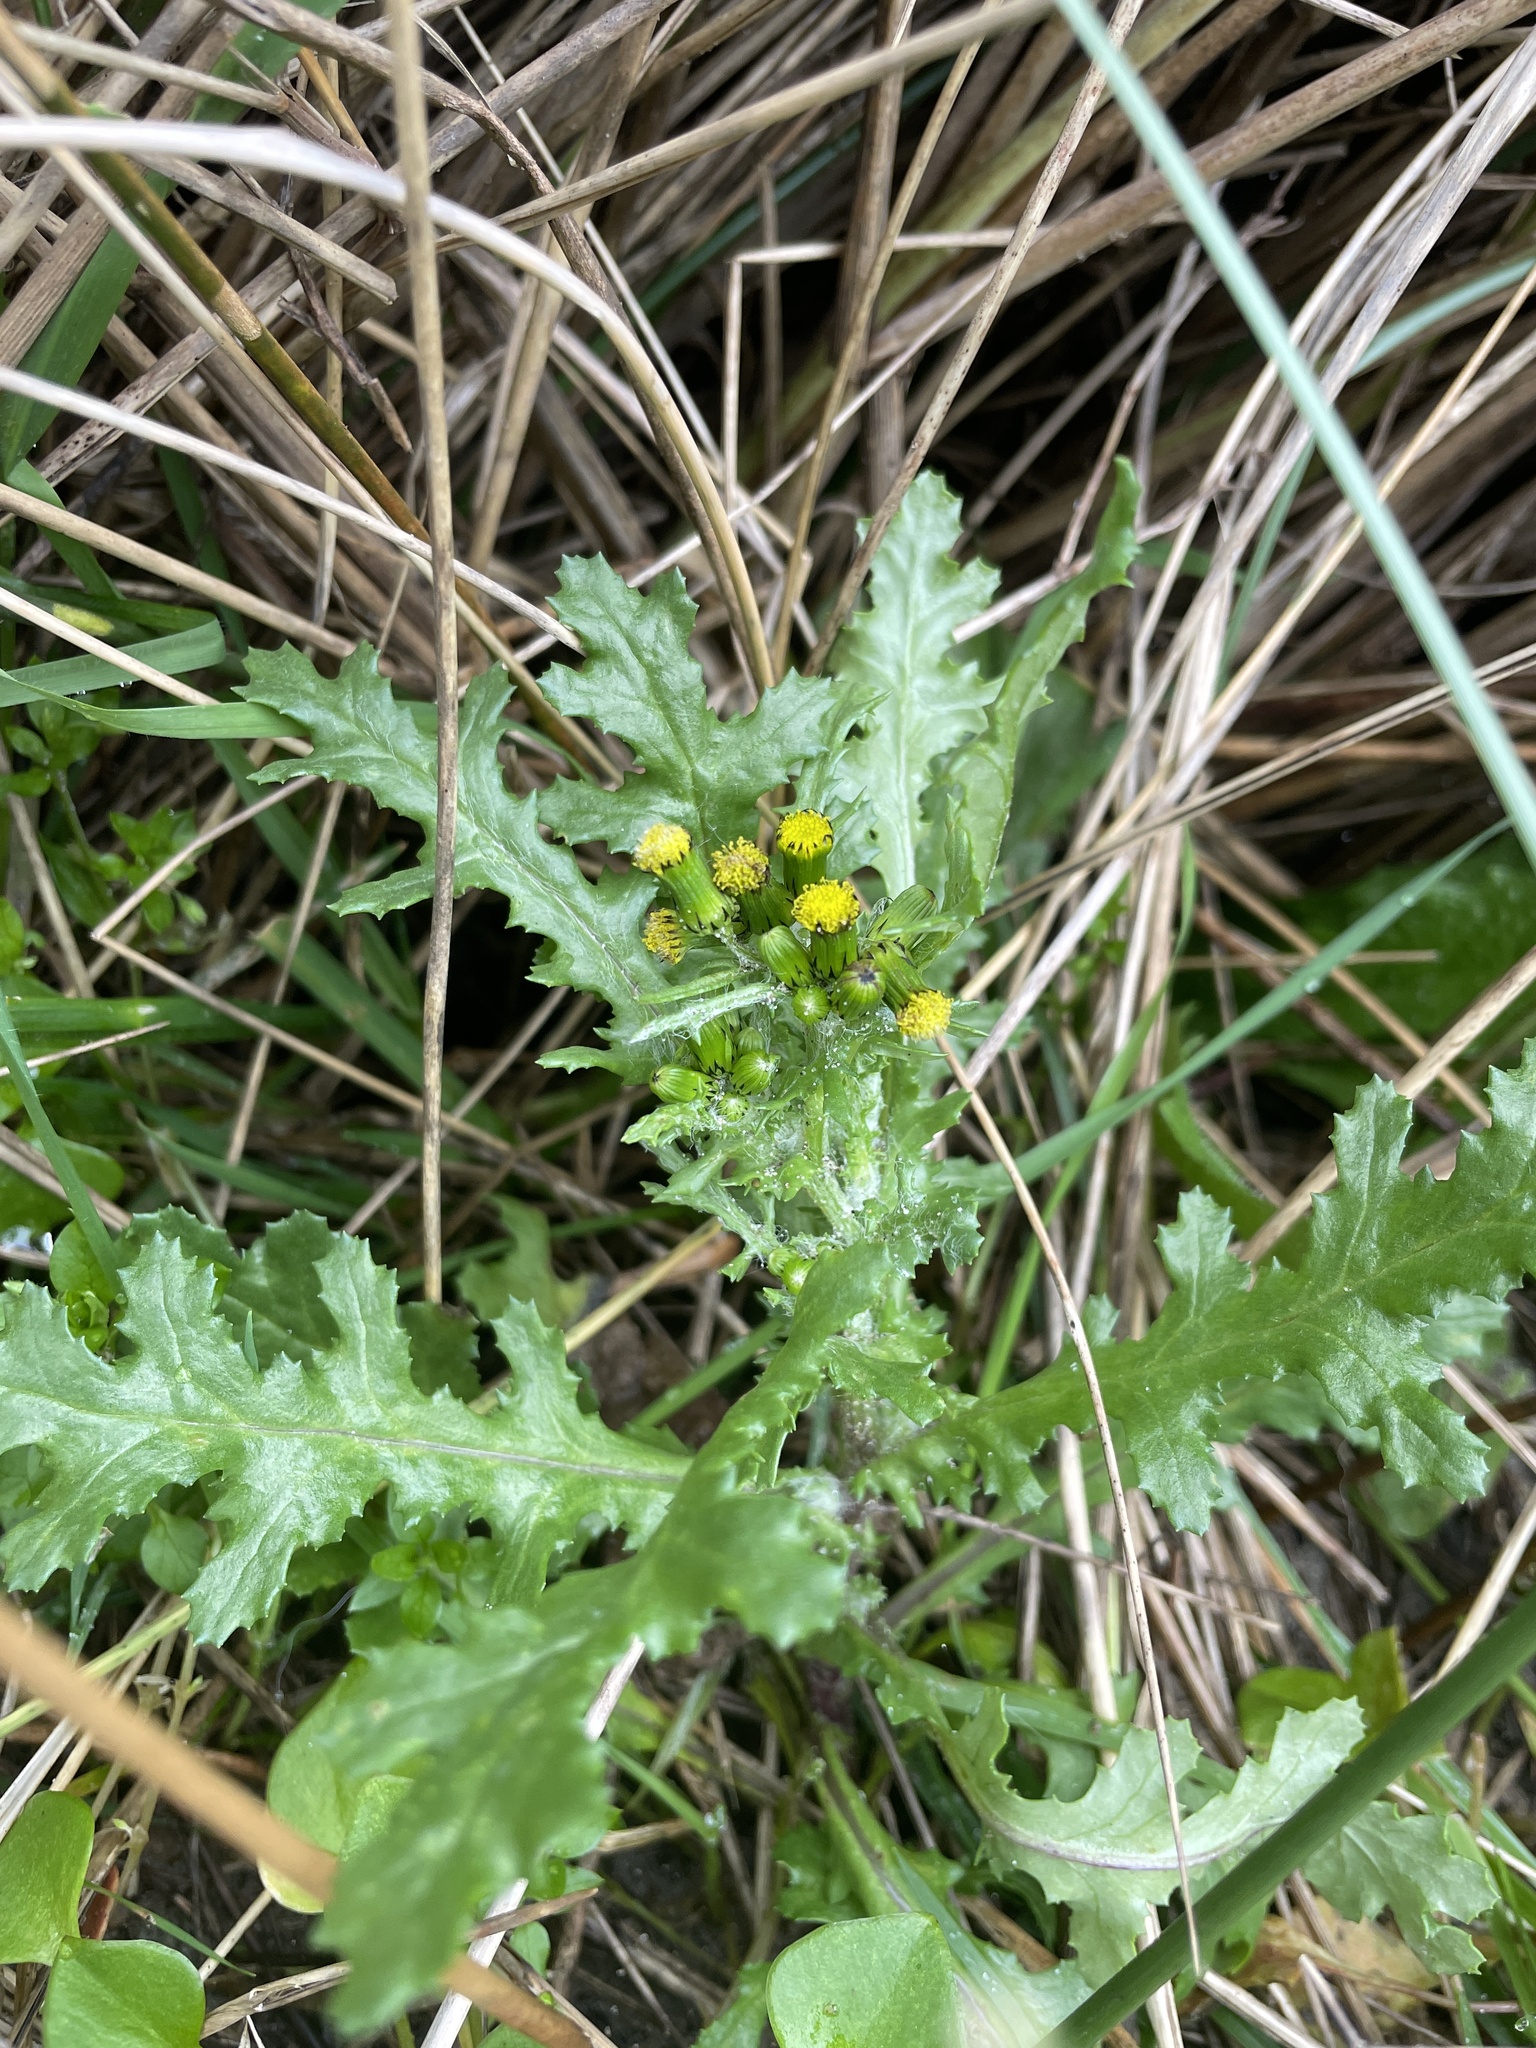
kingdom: Plantae
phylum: Tracheophyta
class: Magnoliopsida
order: Asterales
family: Asteraceae
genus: Senecio
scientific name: Senecio vulgaris
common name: Old-man-in-the-spring
